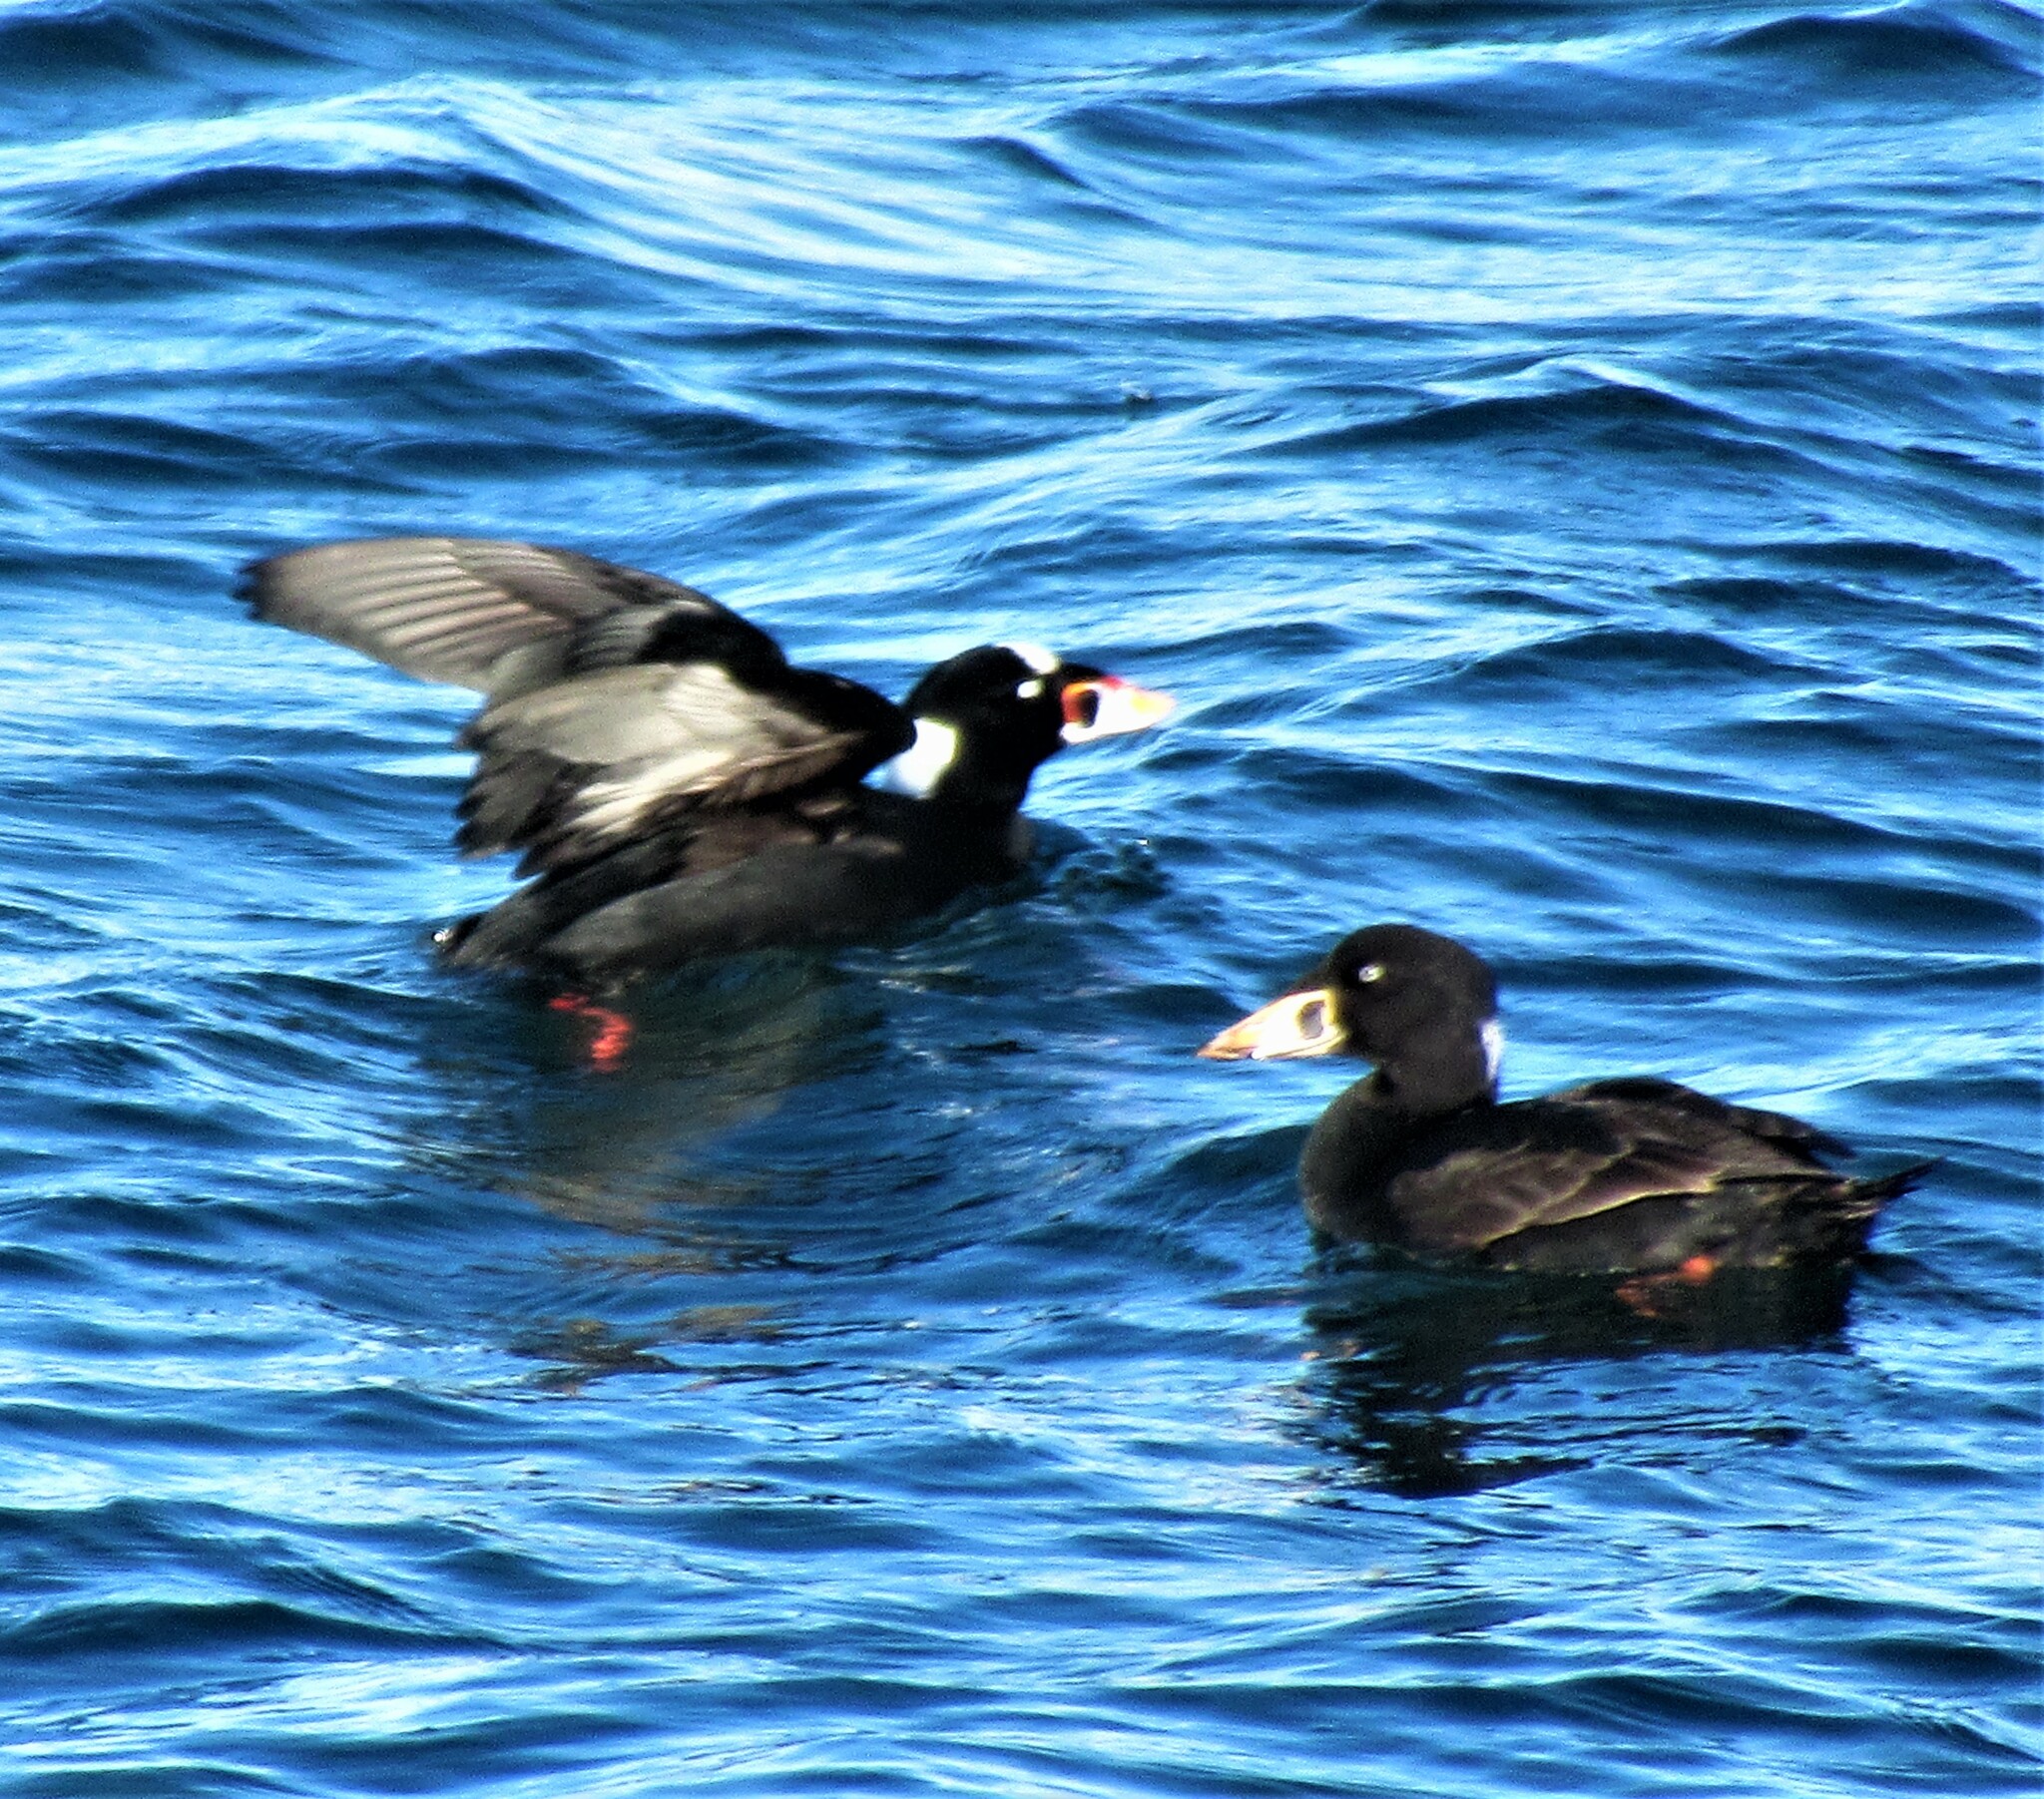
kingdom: Animalia
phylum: Chordata
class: Aves
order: Anseriformes
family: Anatidae
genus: Melanitta
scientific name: Melanitta perspicillata
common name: Surf scoter
